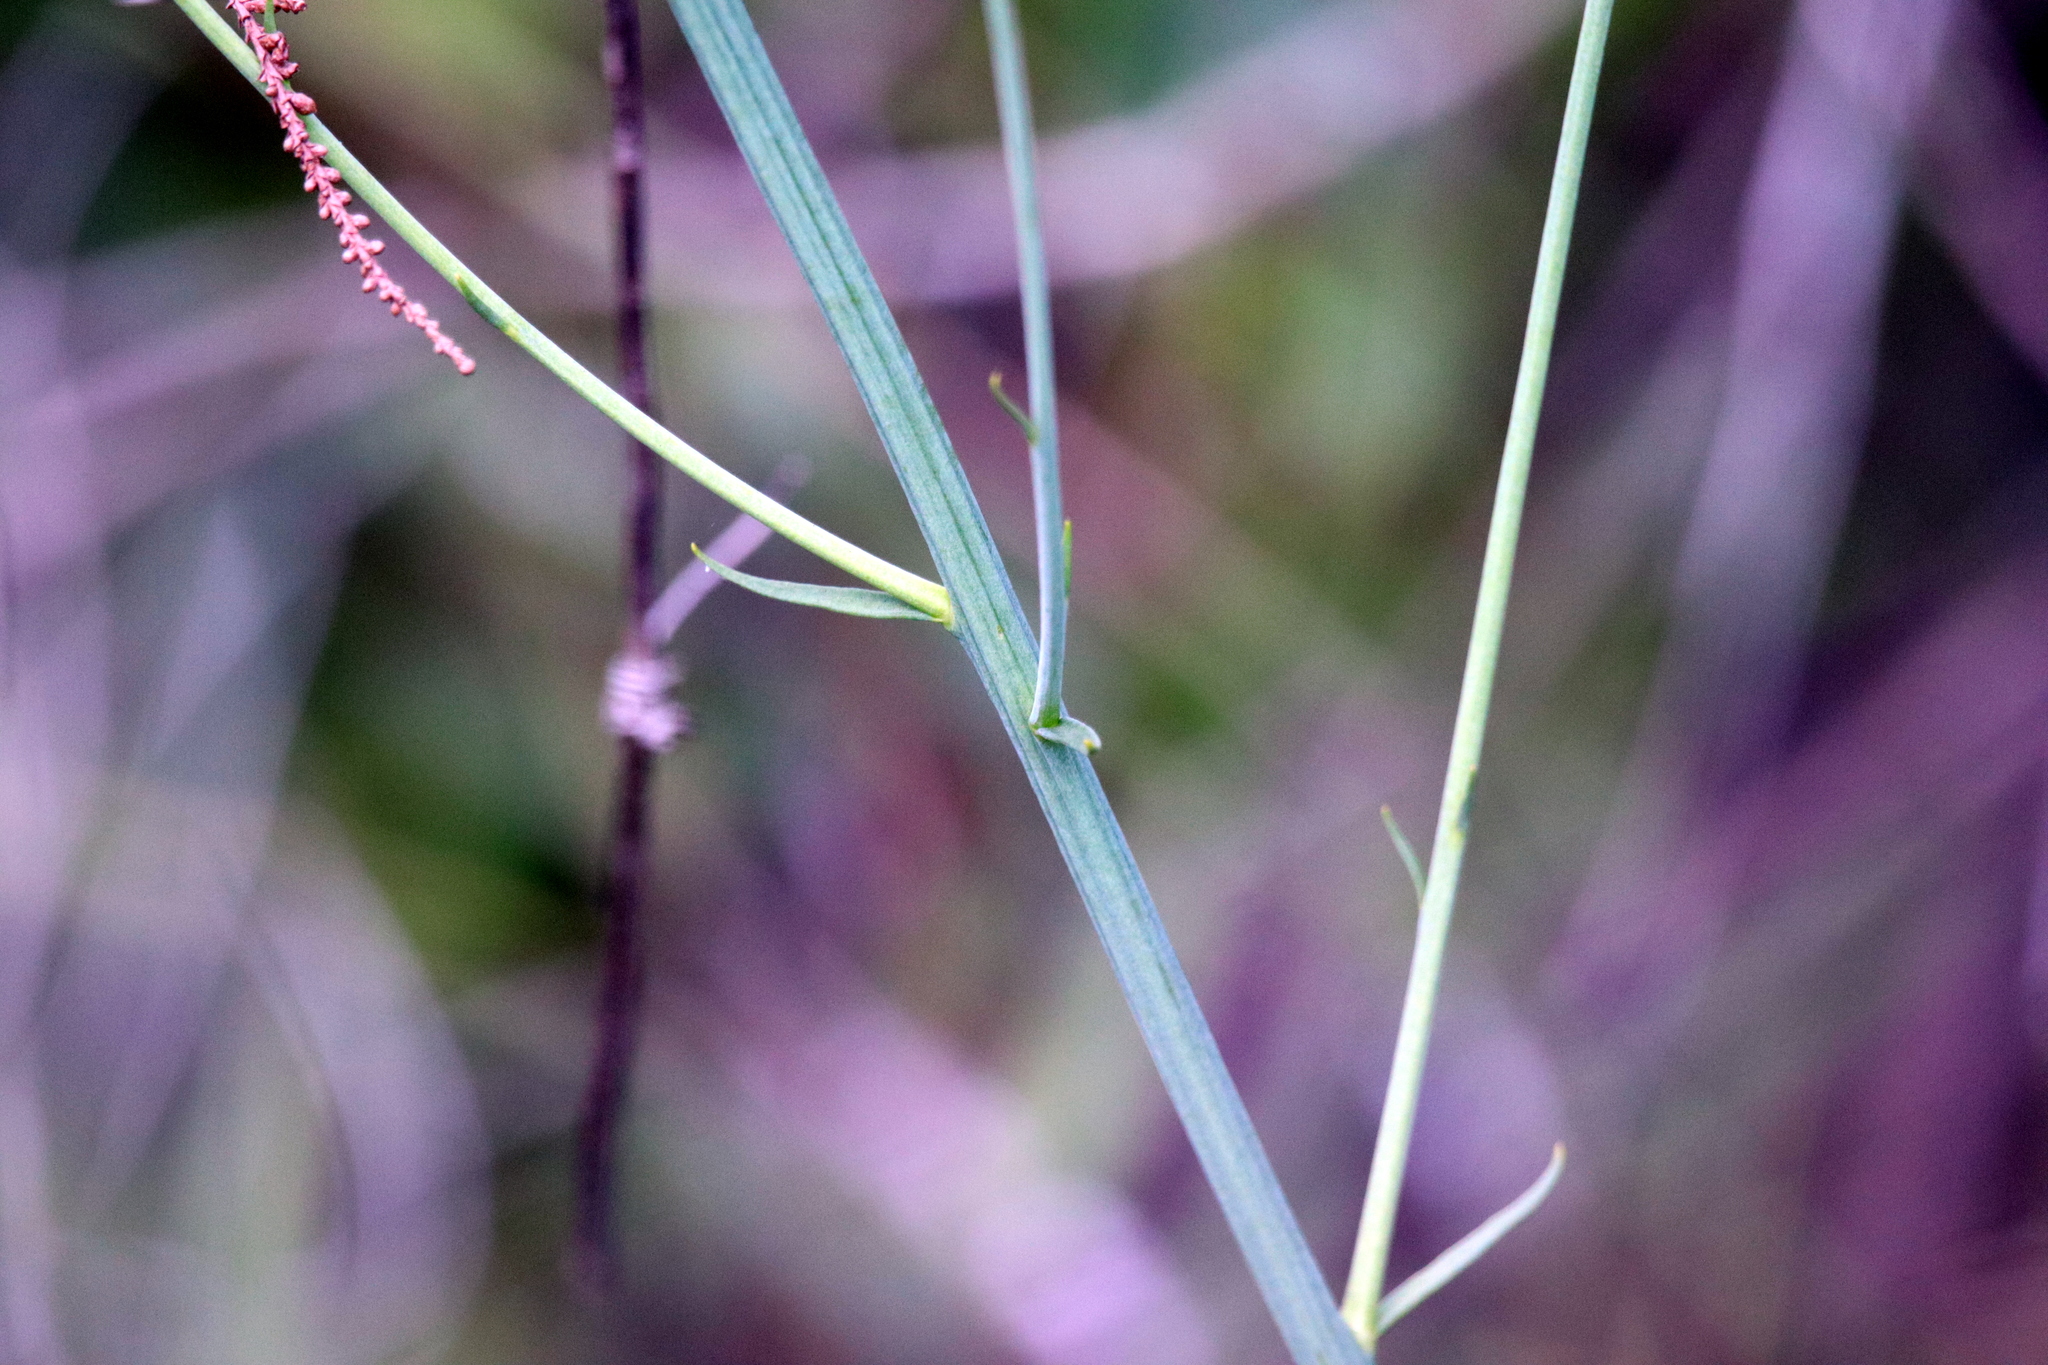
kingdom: Plantae
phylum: Tracheophyta
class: Magnoliopsida
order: Fabales
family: Polygalaceae
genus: Polygala
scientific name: Polygala cymosa
